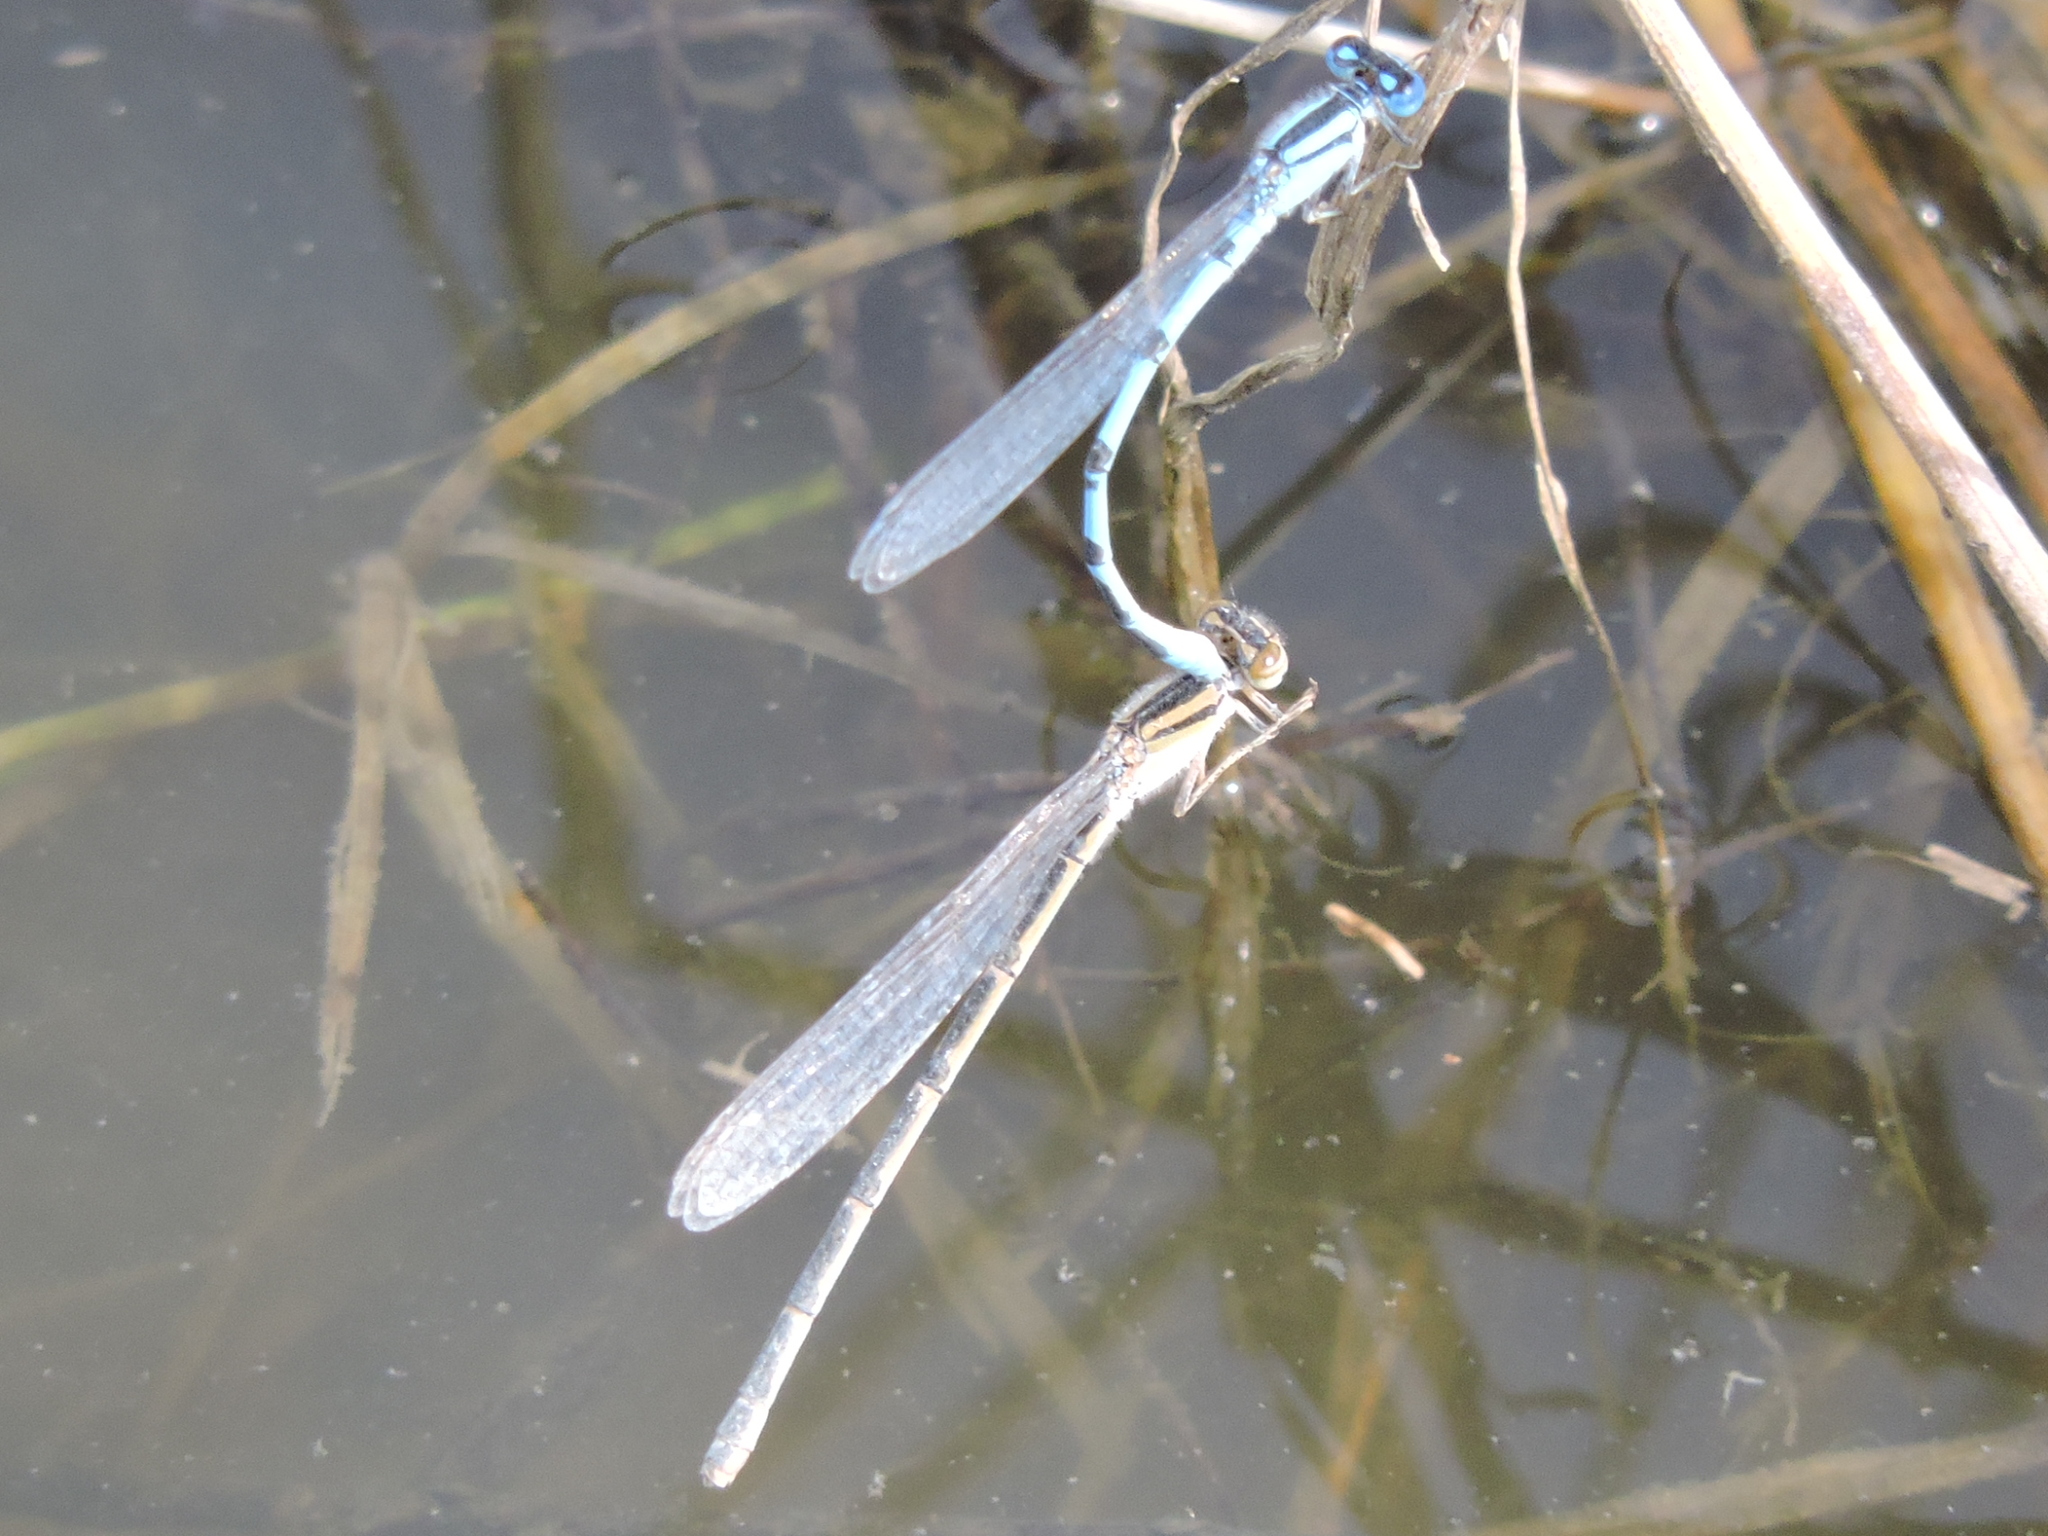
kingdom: Animalia
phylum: Arthropoda
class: Insecta
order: Odonata
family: Coenagrionidae
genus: Enallagma
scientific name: Enallagma civile
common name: Damselfly
